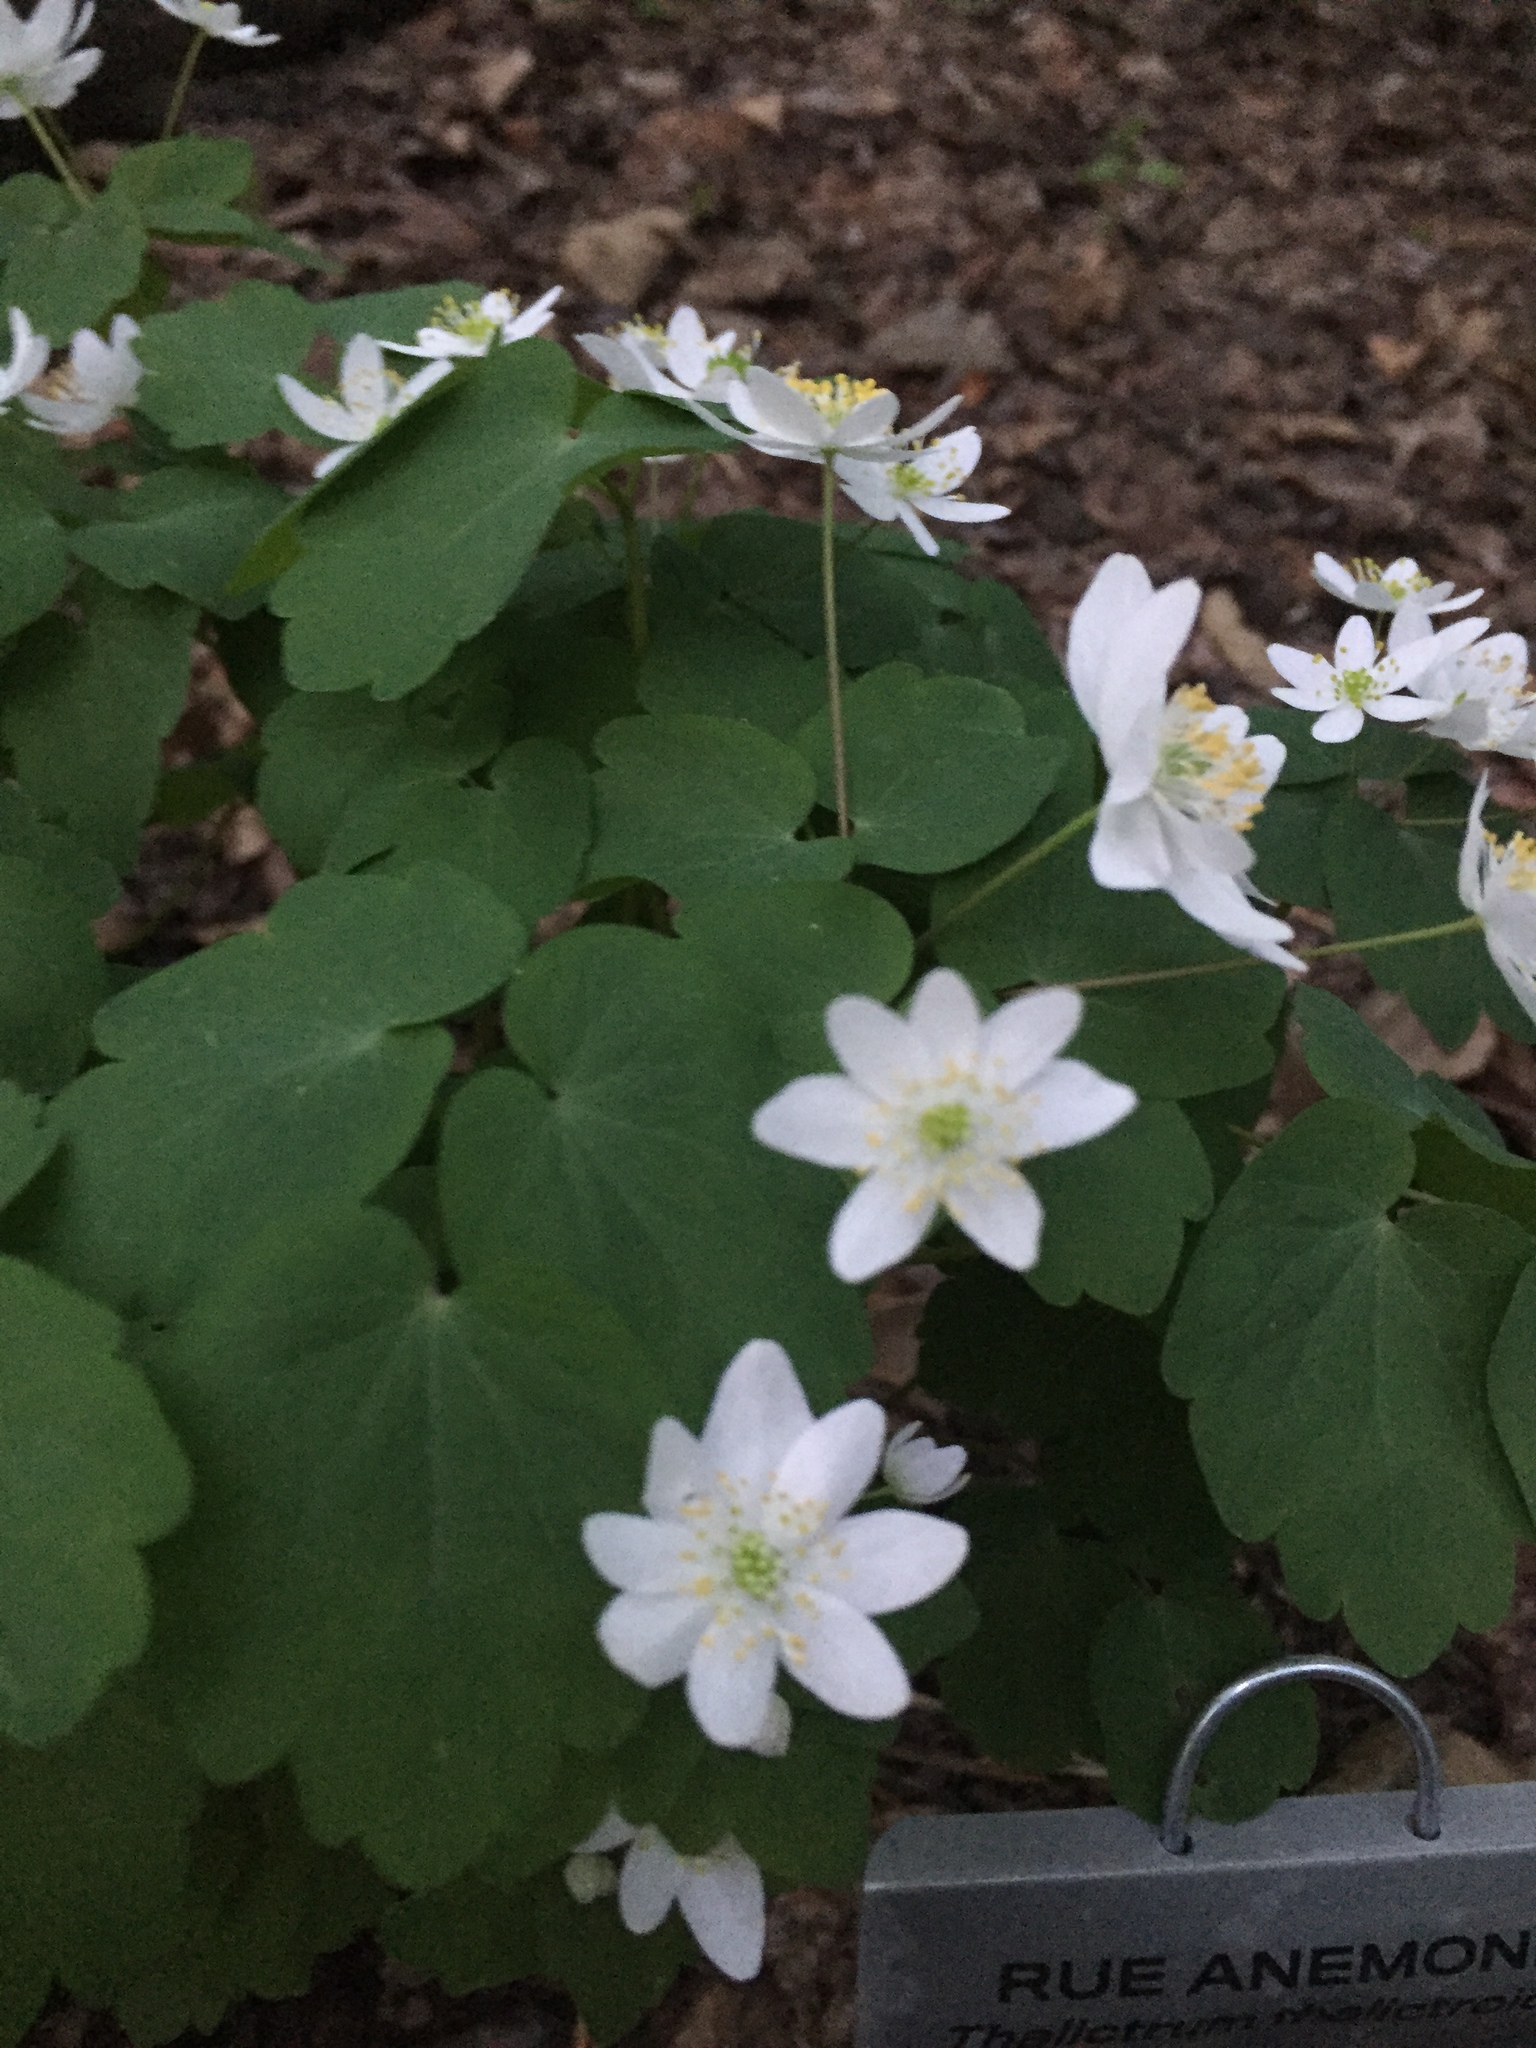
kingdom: Plantae
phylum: Tracheophyta
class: Magnoliopsida
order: Ranunculales
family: Ranunculaceae
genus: Thalictrum
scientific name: Thalictrum thalictroides
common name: Rue-anemone
